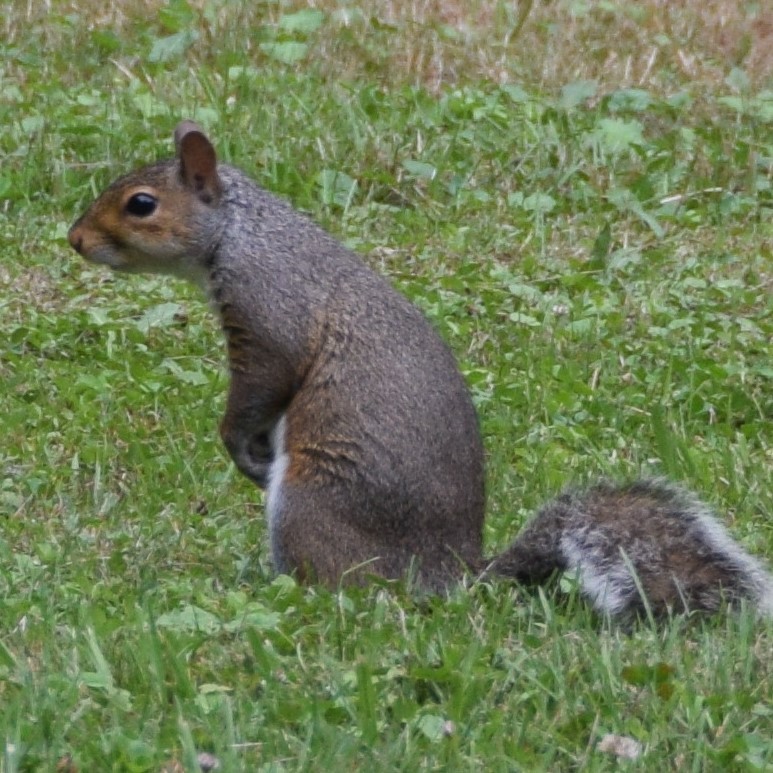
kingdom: Animalia
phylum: Chordata
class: Mammalia
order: Rodentia
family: Sciuridae
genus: Sciurus
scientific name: Sciurus carolinensis
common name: Eastern gray squirrel
